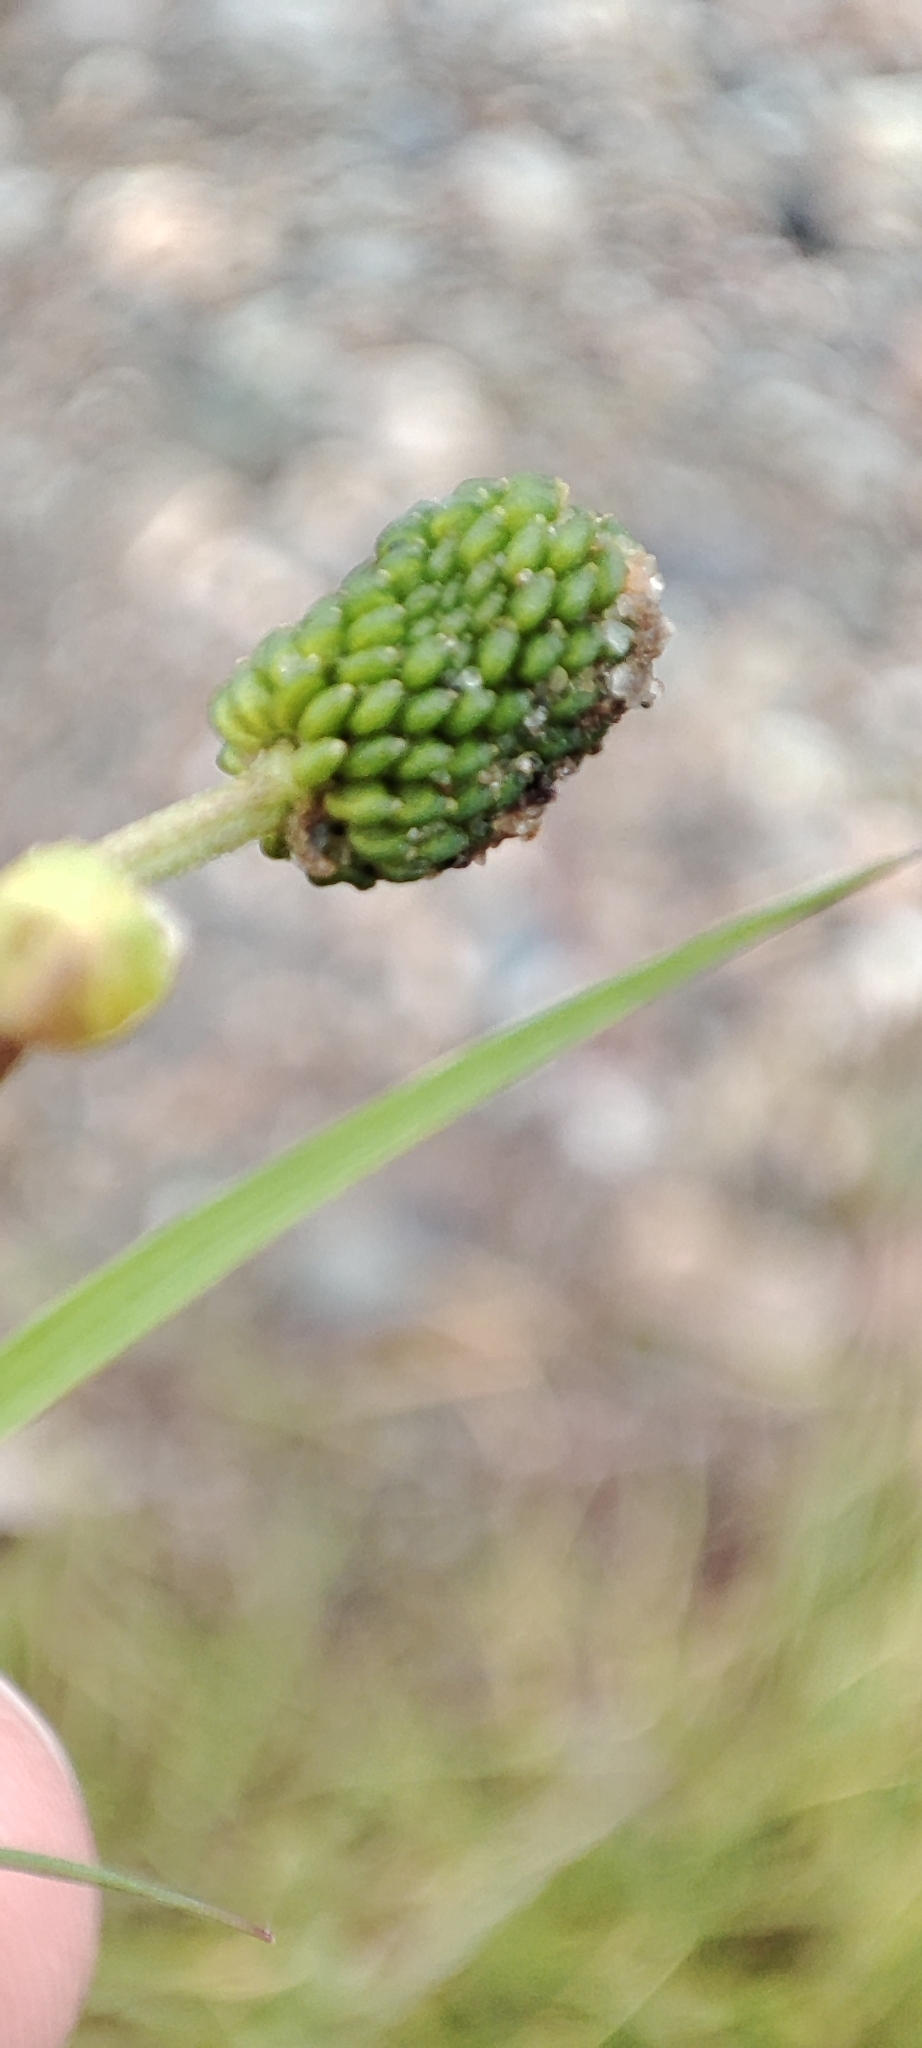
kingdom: Plantae
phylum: Tracheophyta
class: Magnoliopsida
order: Ranunculales
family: Ranunculaceae
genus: Ranunculus
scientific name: Ranunculus flammula
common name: Lesser spearwort
